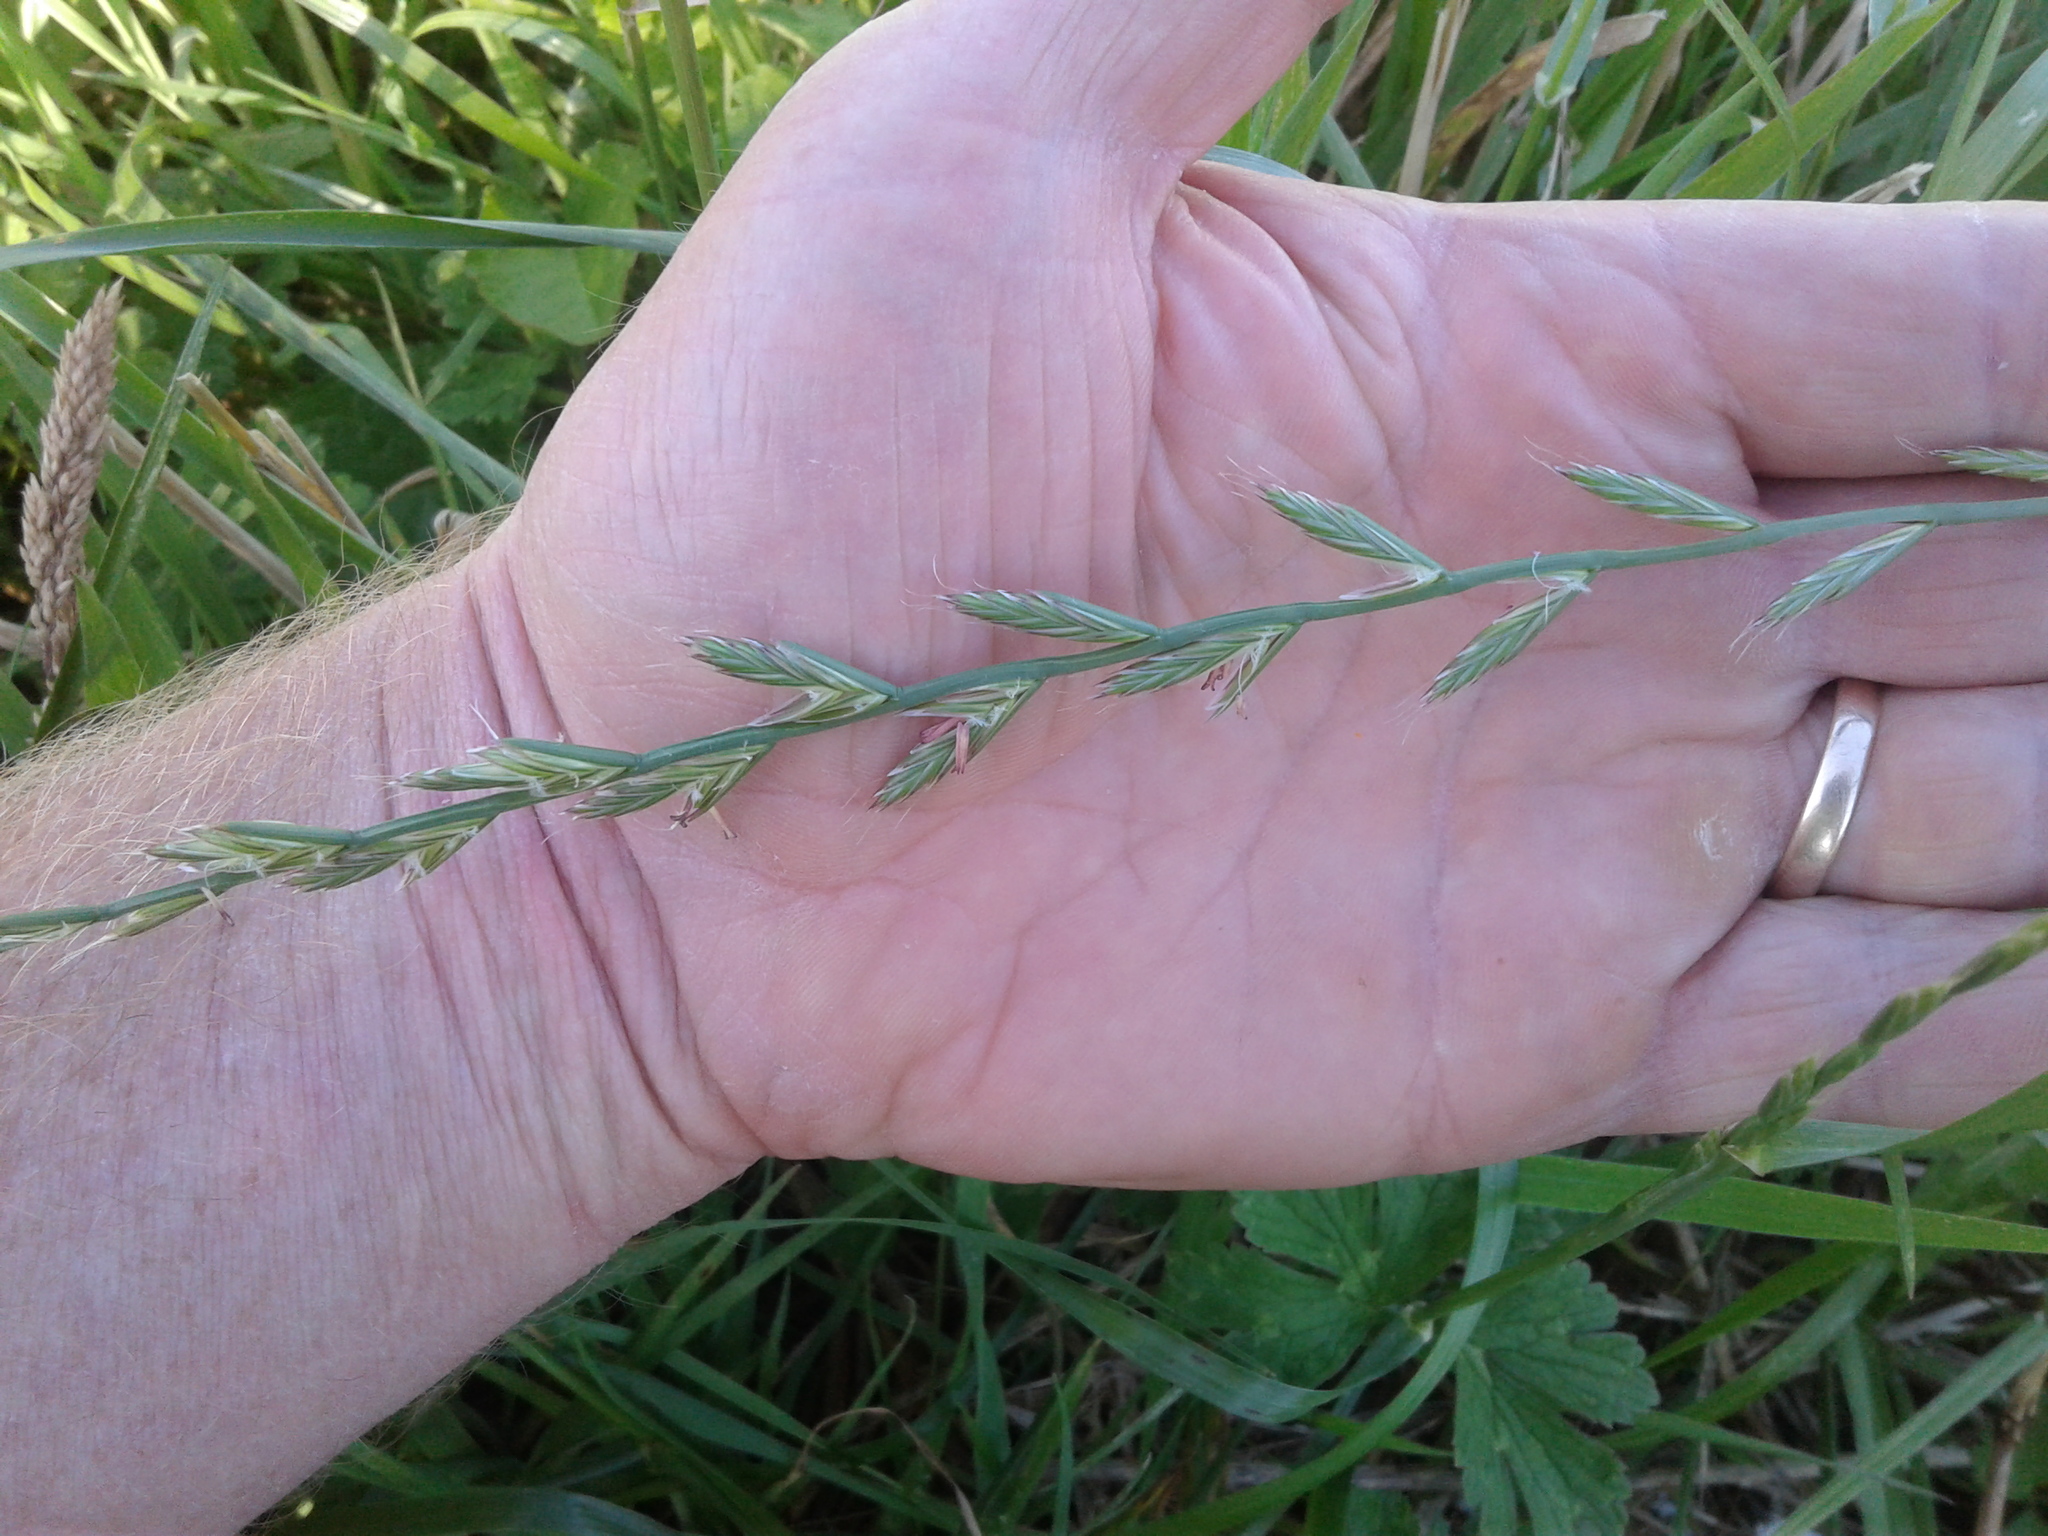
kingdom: Plantae
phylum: Tracheophyta
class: Liliopsida
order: Poales
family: Poaceae
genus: Lolium
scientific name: Lolium multiflorum
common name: Annual ryegrass
